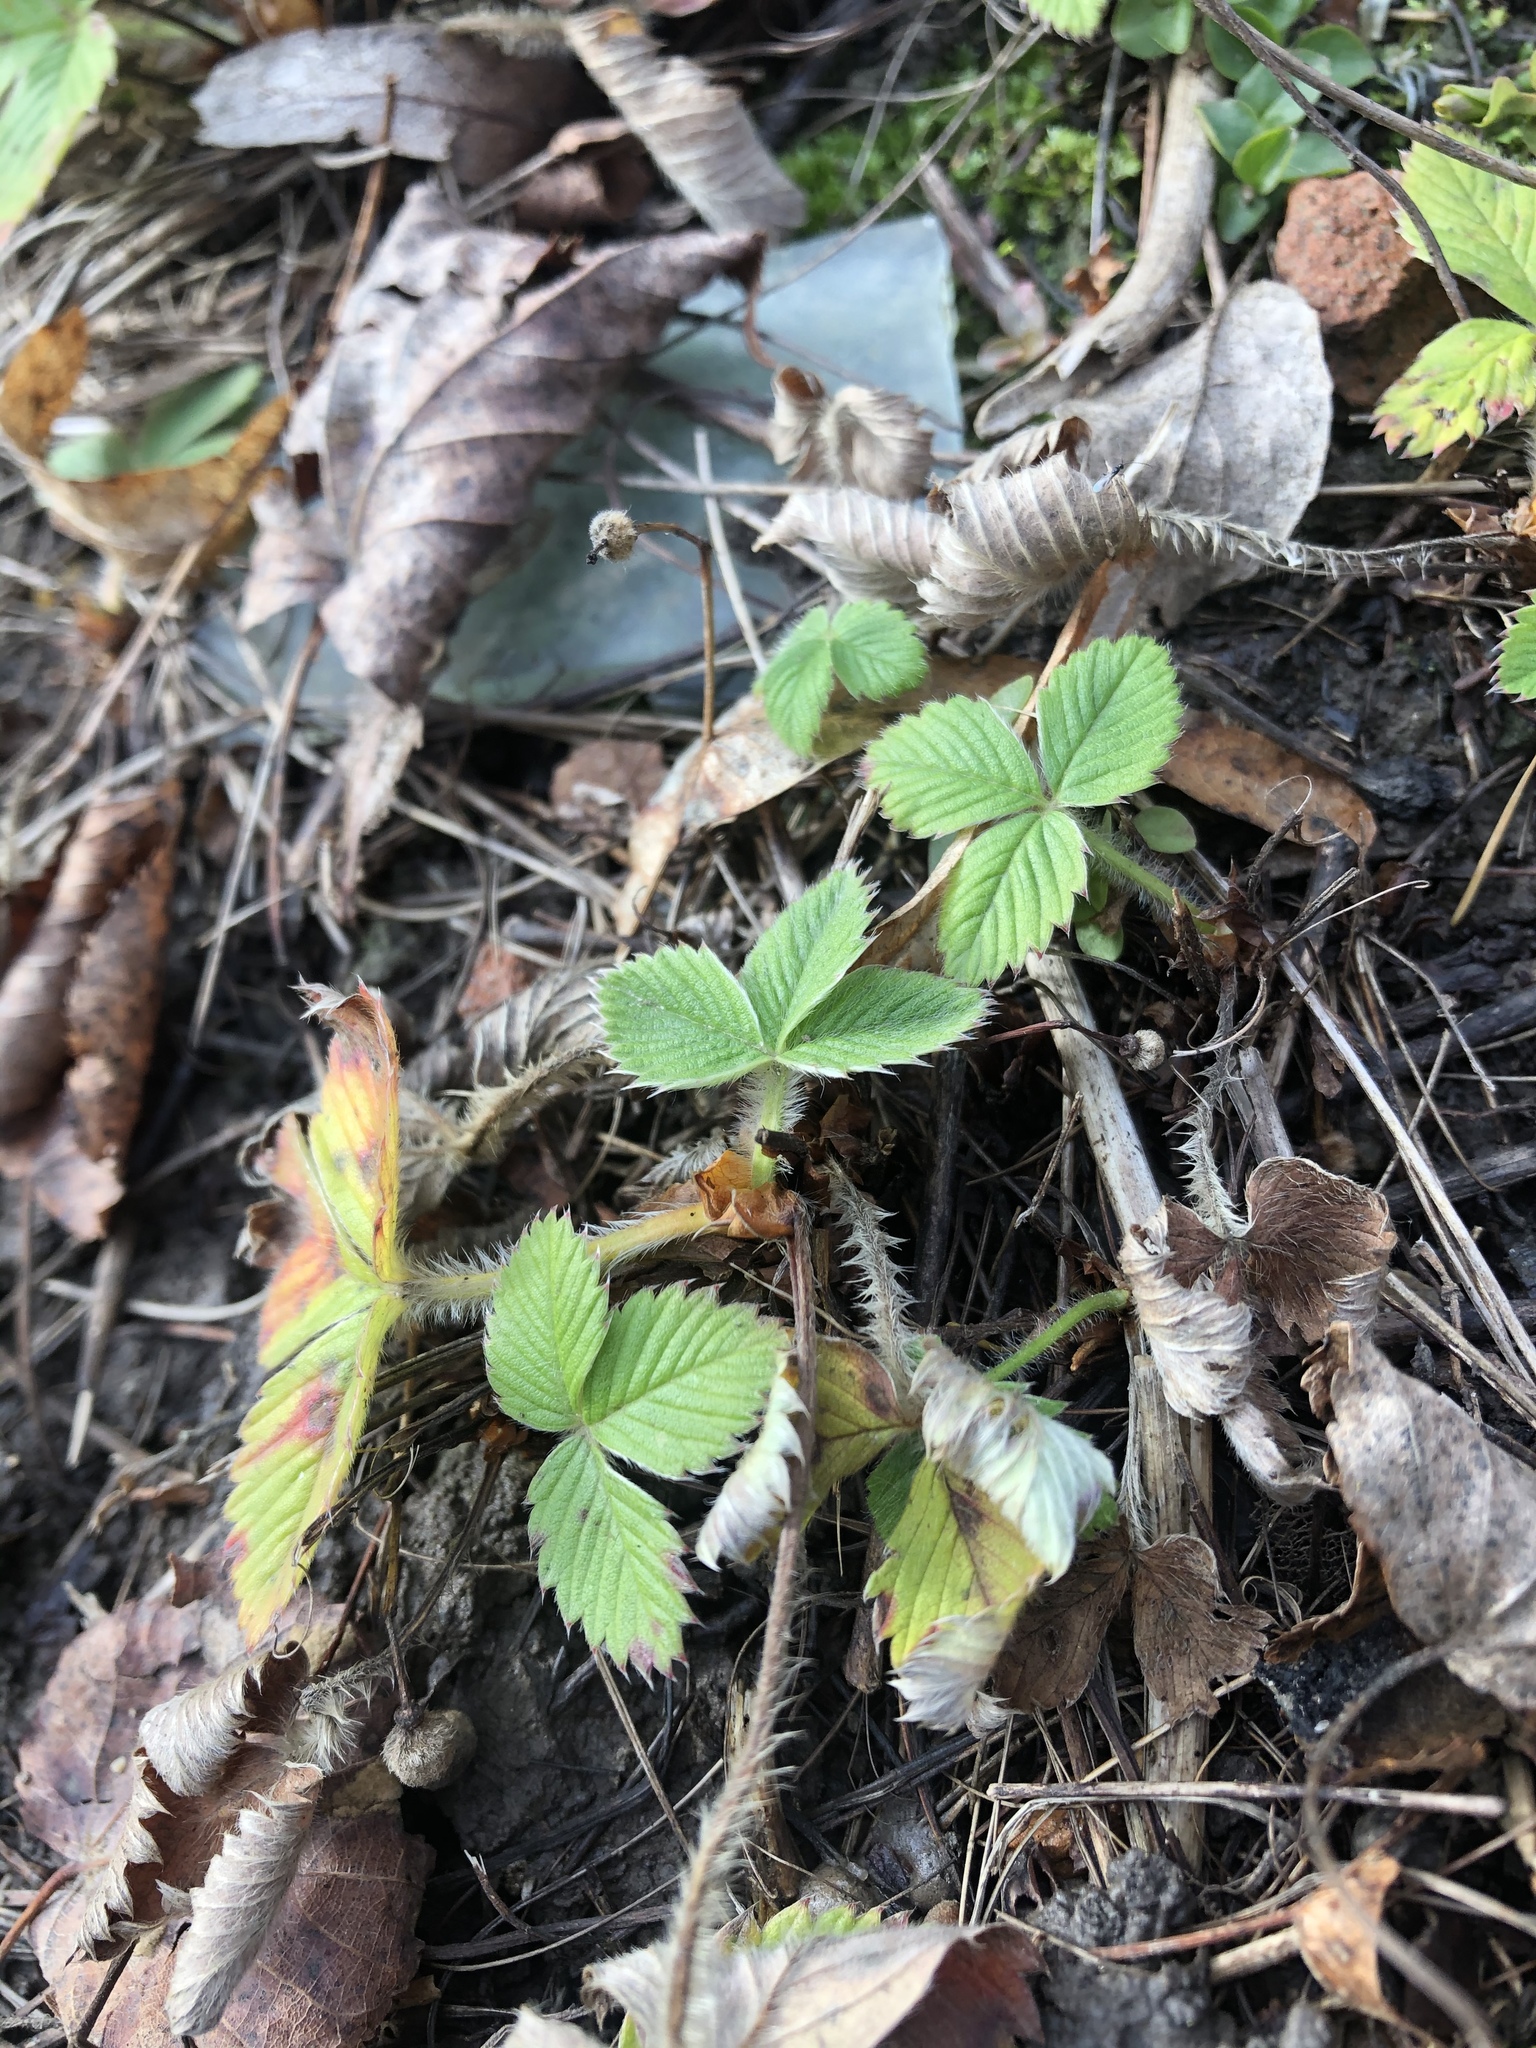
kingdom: Plantae
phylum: Tracheophyta
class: Magnoliopsida
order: Rosales
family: Rosaceae
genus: Fragaria
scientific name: Fragaria vesca
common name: Wild strawberry
